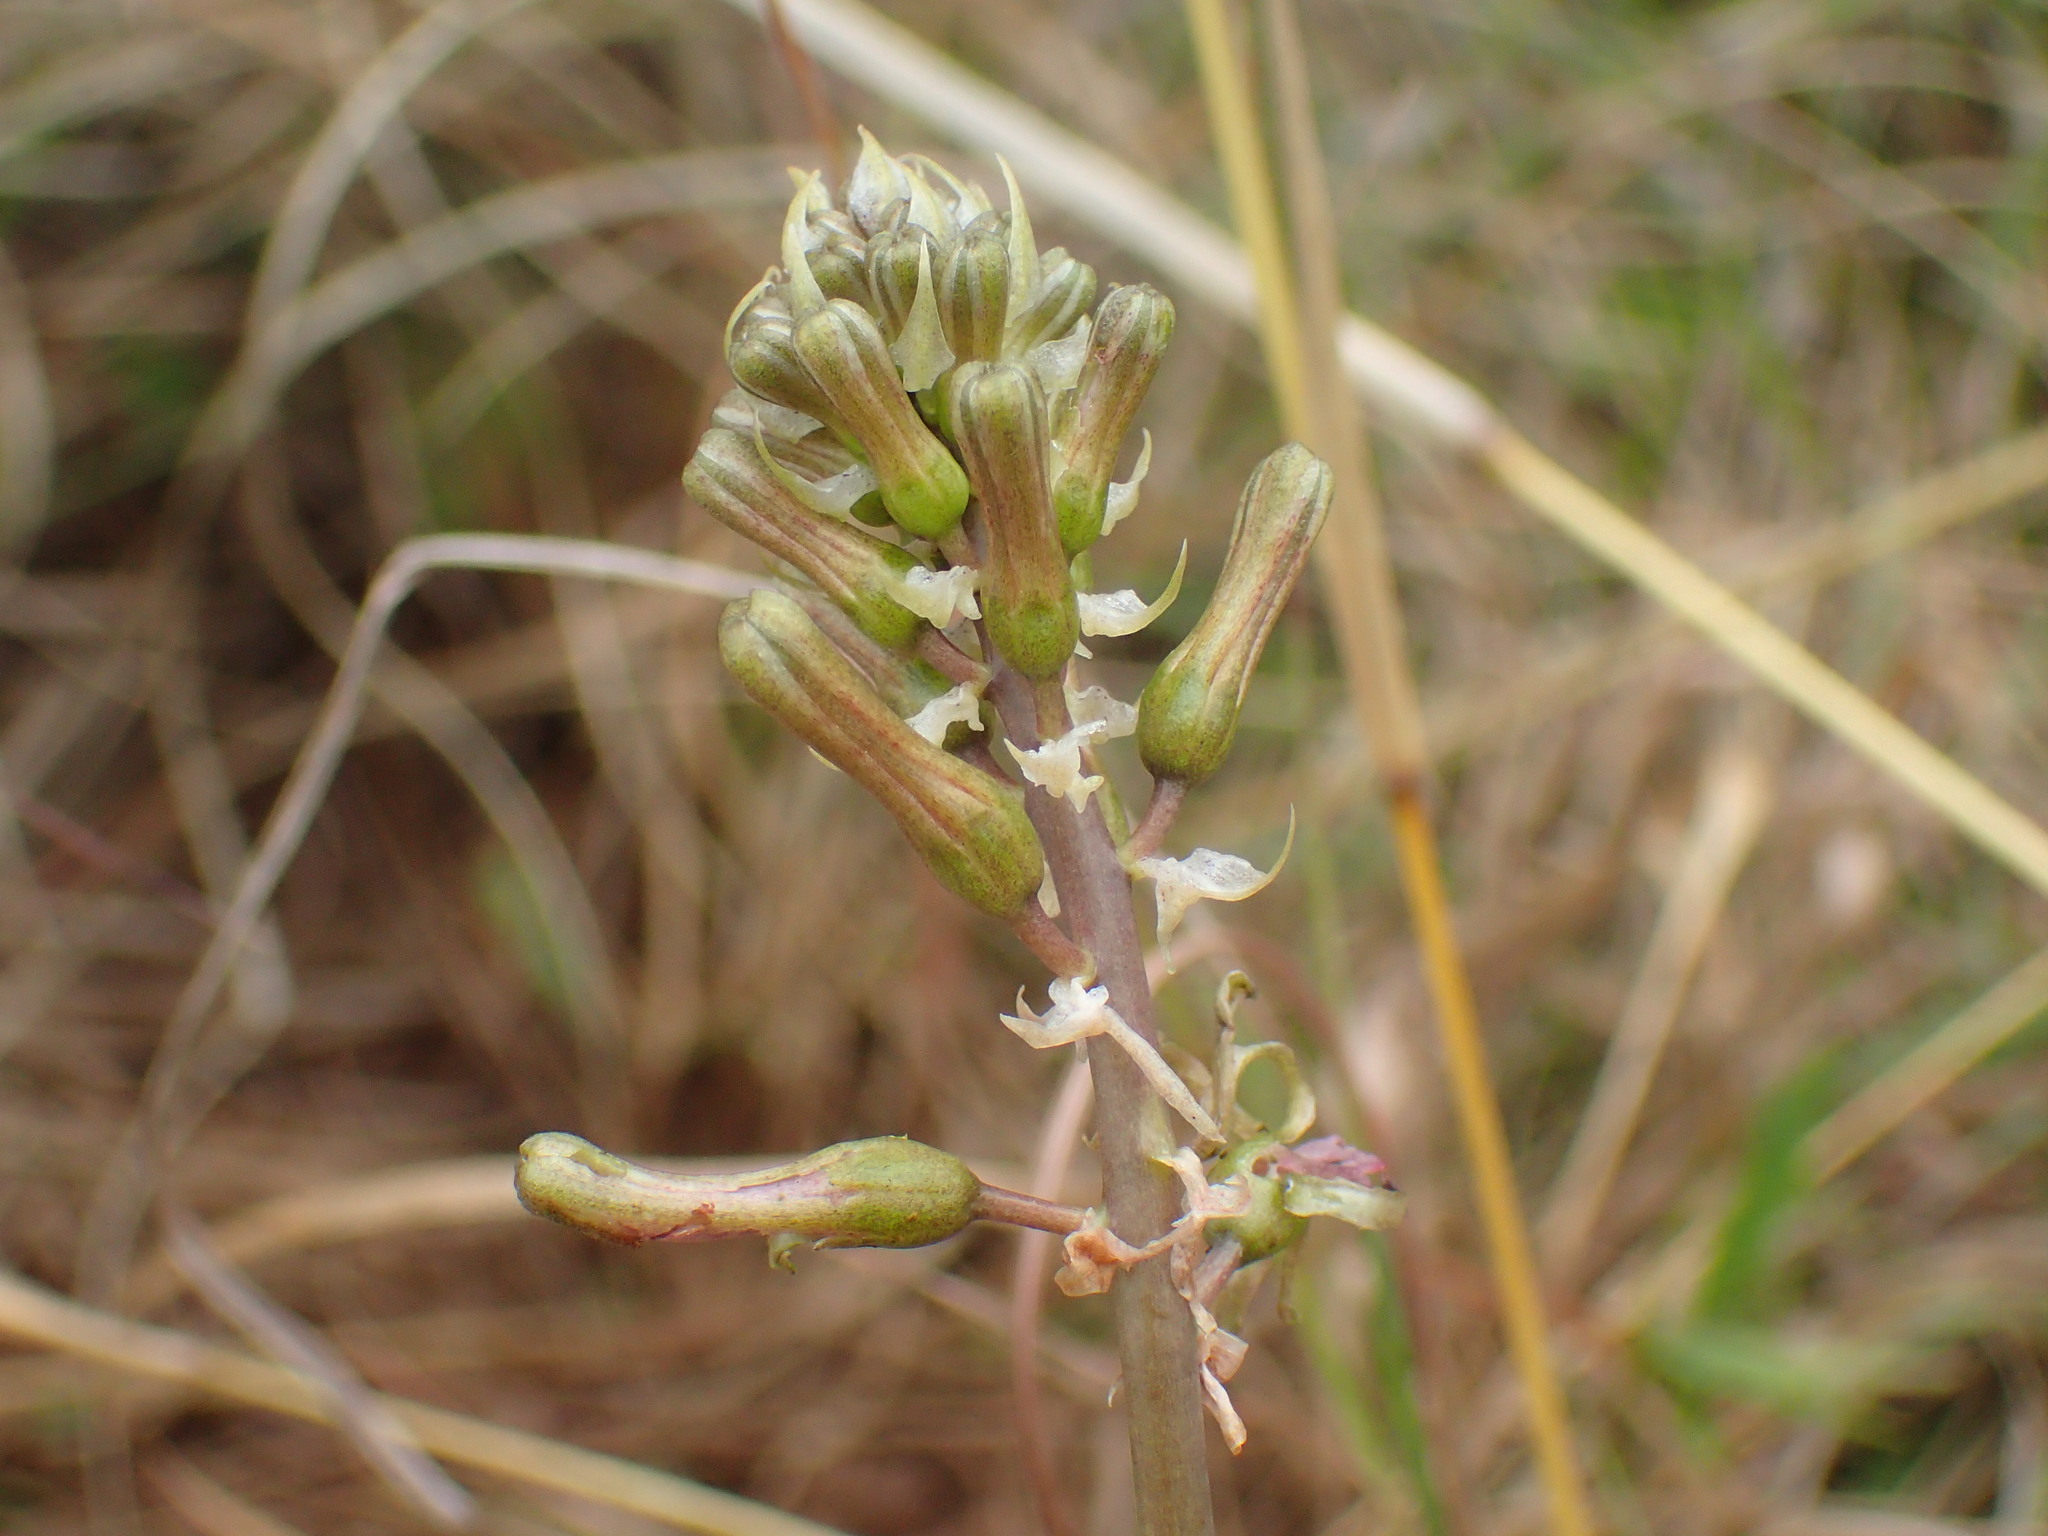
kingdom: Plantae
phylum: Tracheophyta
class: Liliopsida
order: Asparagales
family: Asparagaceae
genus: Drimia
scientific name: Drimia elata
